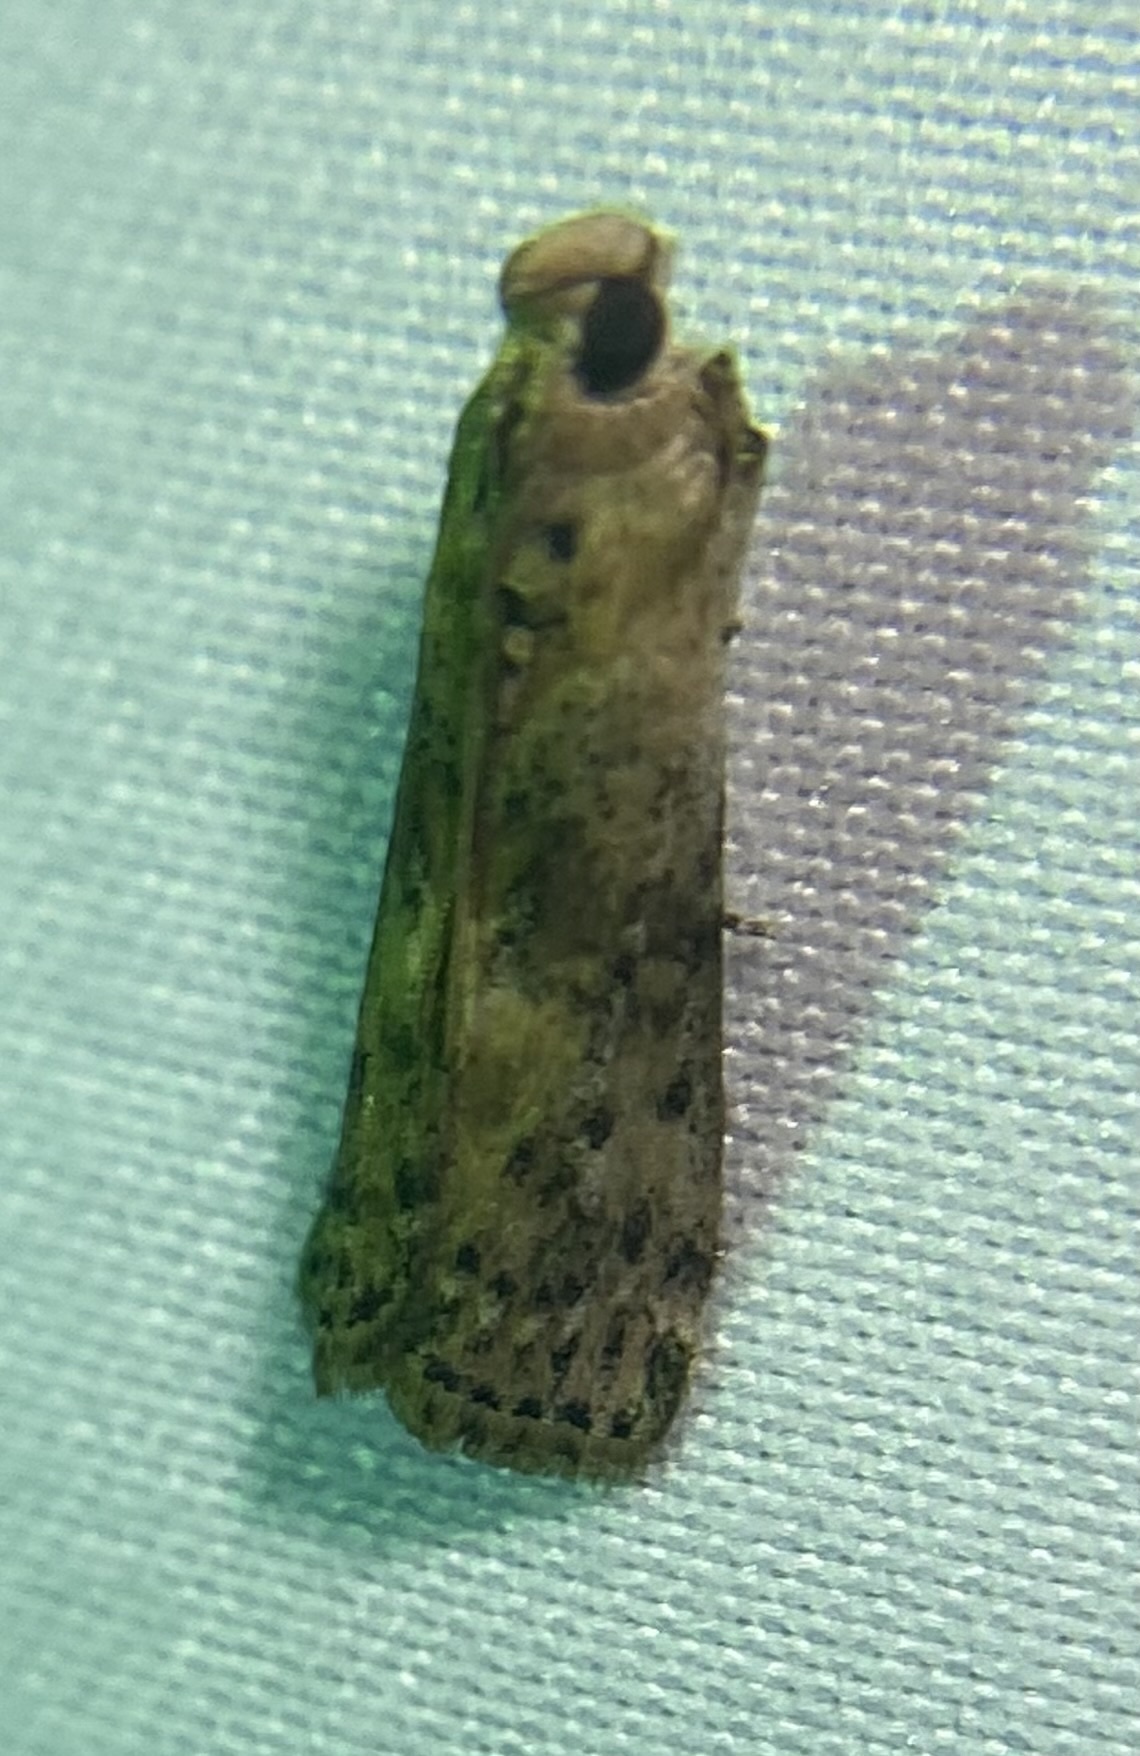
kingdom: Animalia
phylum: Arthropoda
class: Insecta
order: Lepidoptera
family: Pyralidae
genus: Sciota
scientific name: Sciota celtidella
